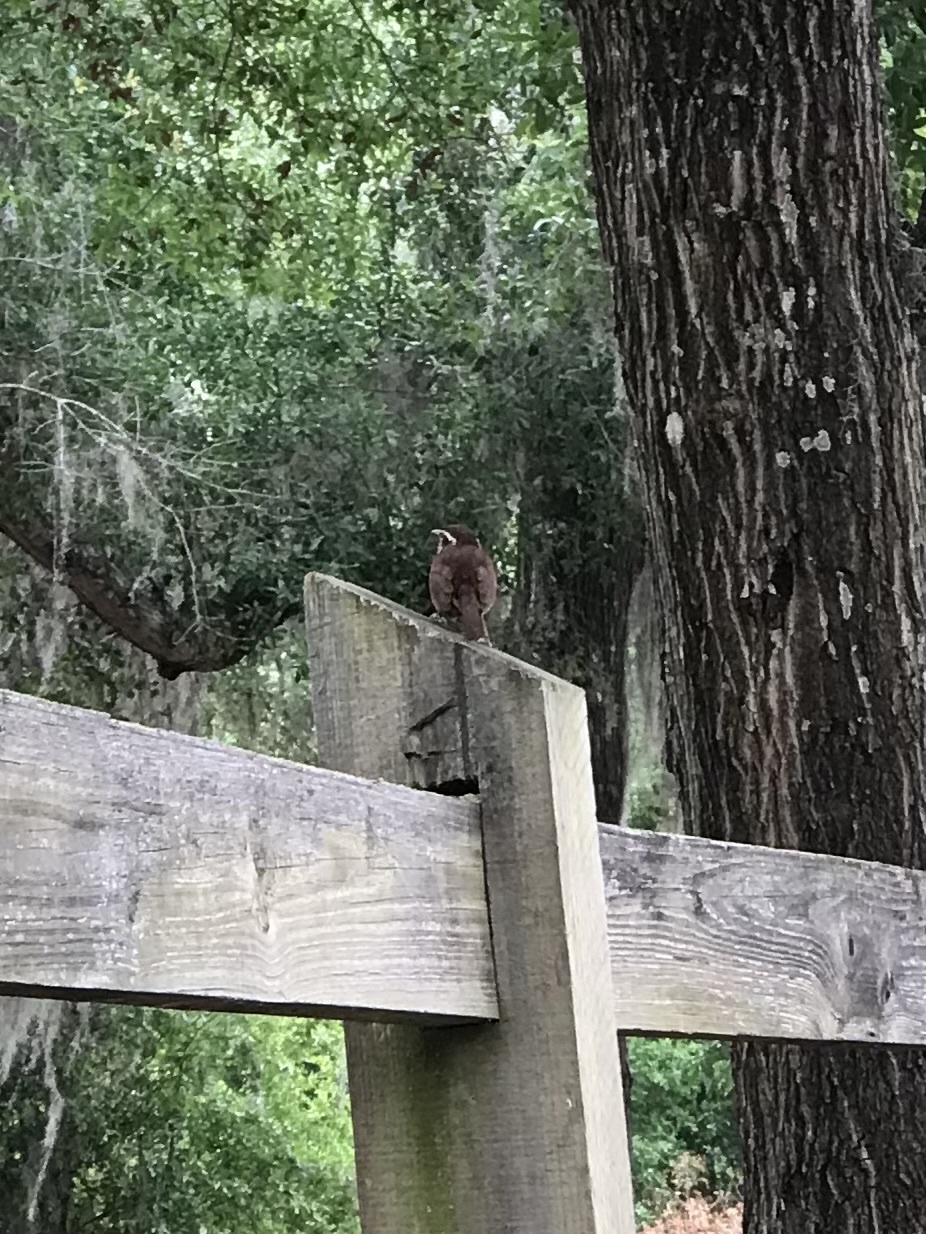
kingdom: Animalia
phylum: Chordata
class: Aves
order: Passeriformes
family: Troglodytidae
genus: Thryothorus
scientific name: Thryothorus ludovicianus
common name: Carolina wren
